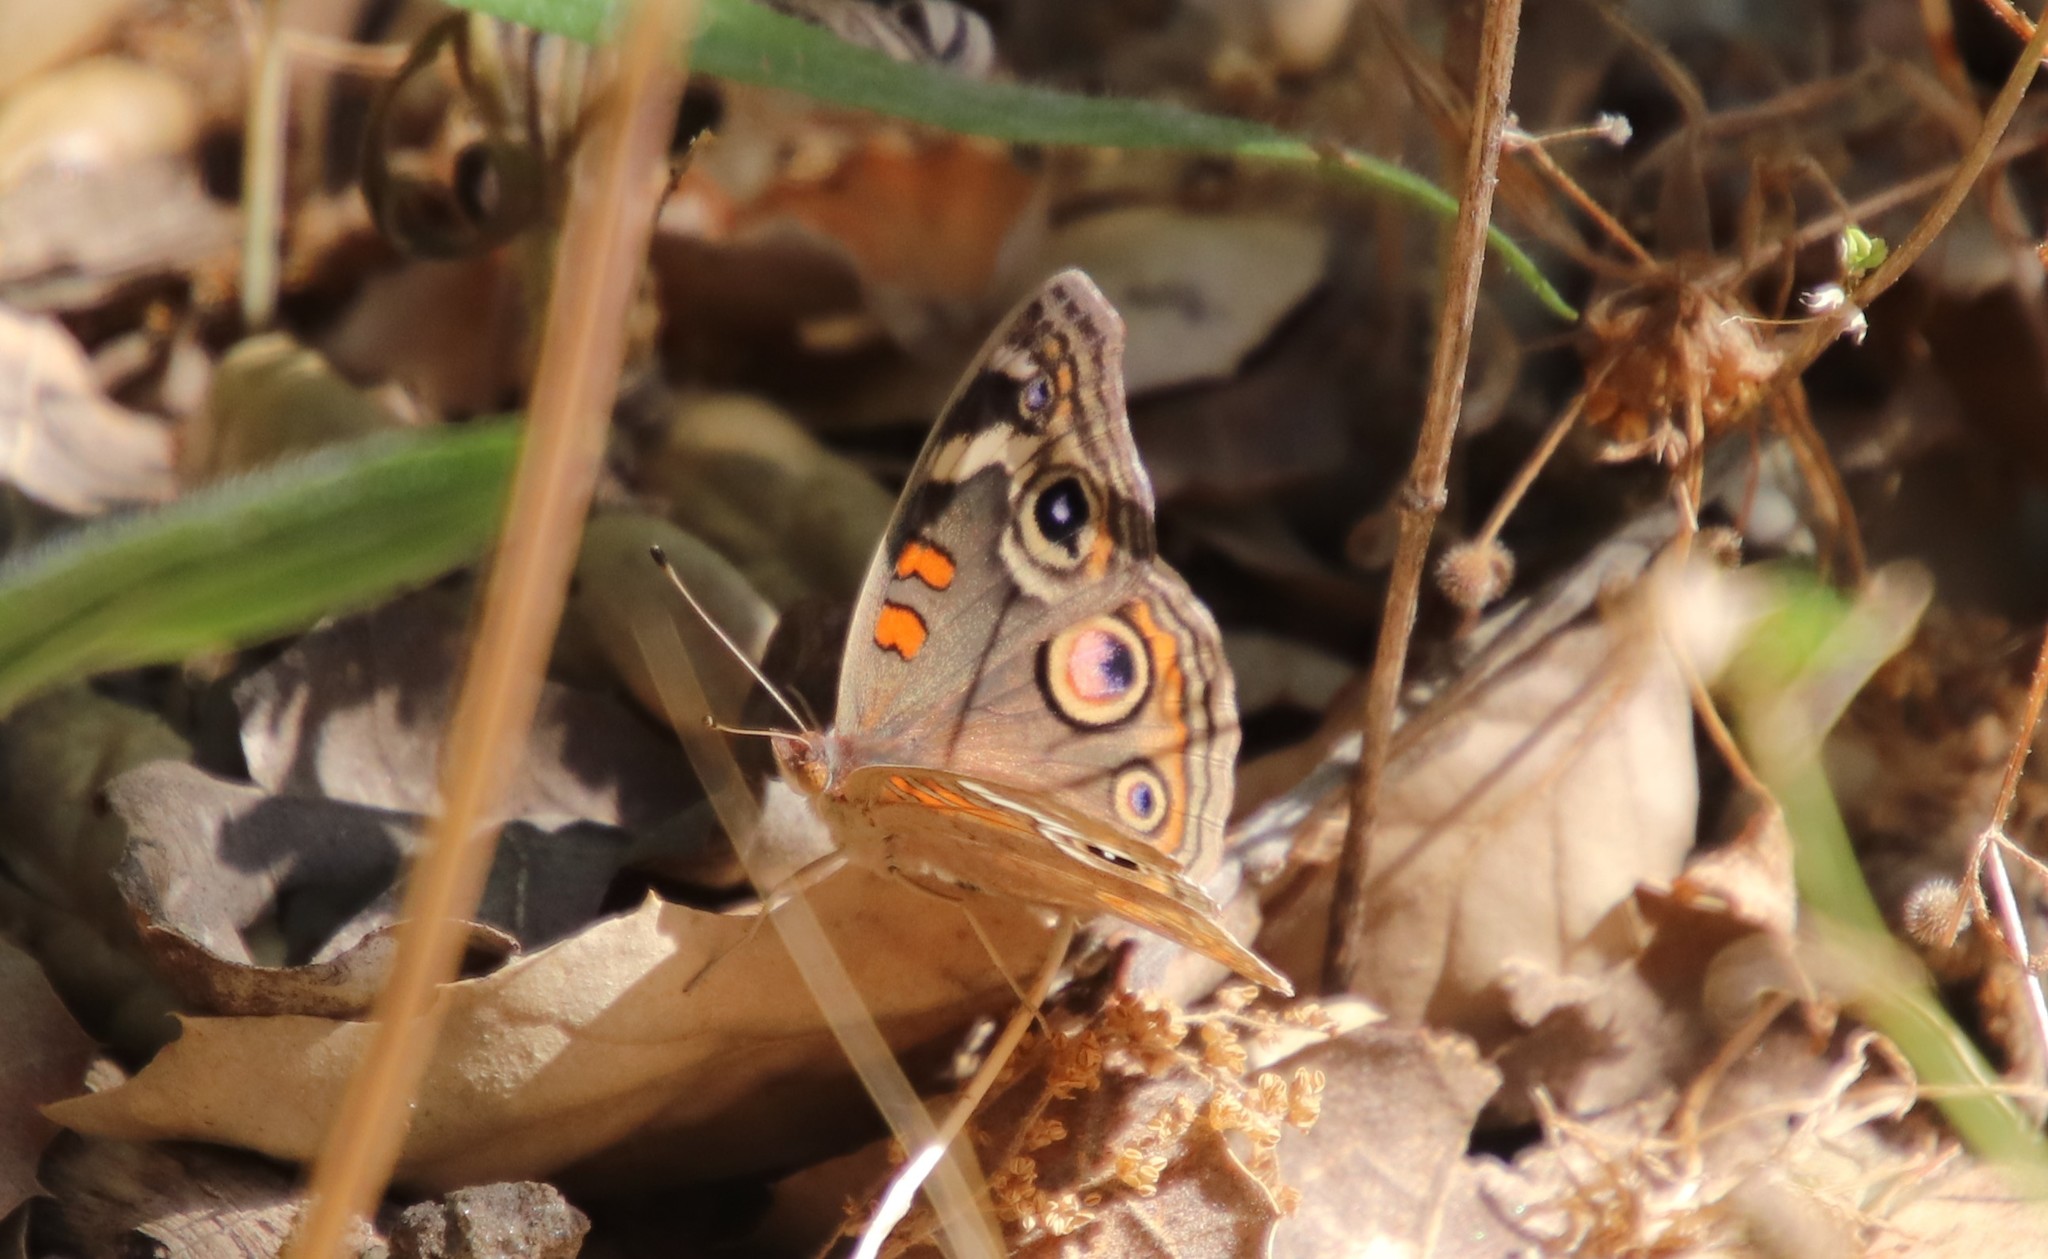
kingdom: Animalia
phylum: Arthropoda
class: Insecta
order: Lepidoptera
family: Nymphalidae
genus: Junonia
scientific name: Junonia grisea
